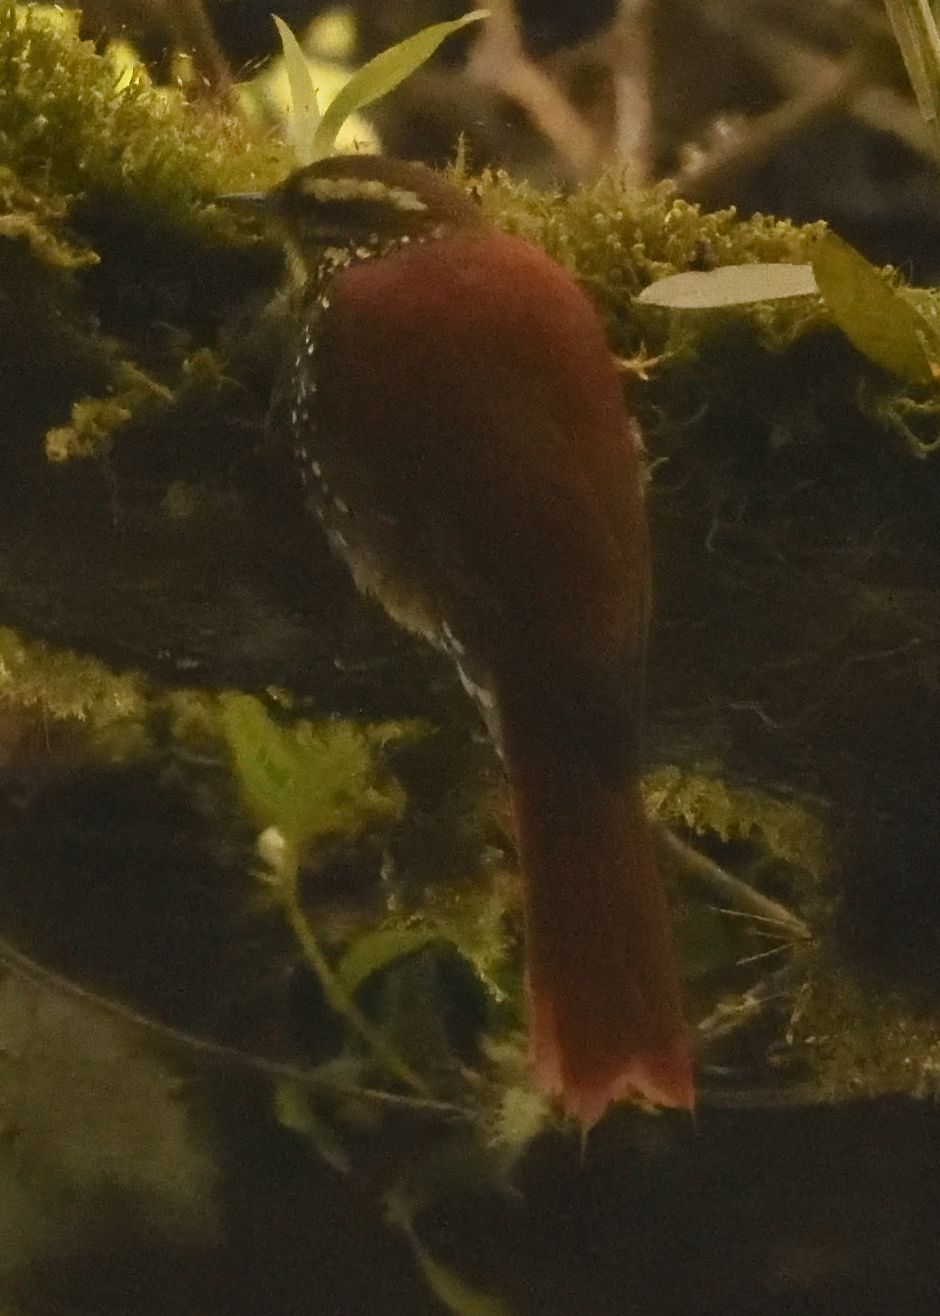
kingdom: Animalia
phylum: Chordata
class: Aves
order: Passeriformes
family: Furnariidae
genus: Margarornis
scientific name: Margarornis squamiger
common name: Pearled treerunner
